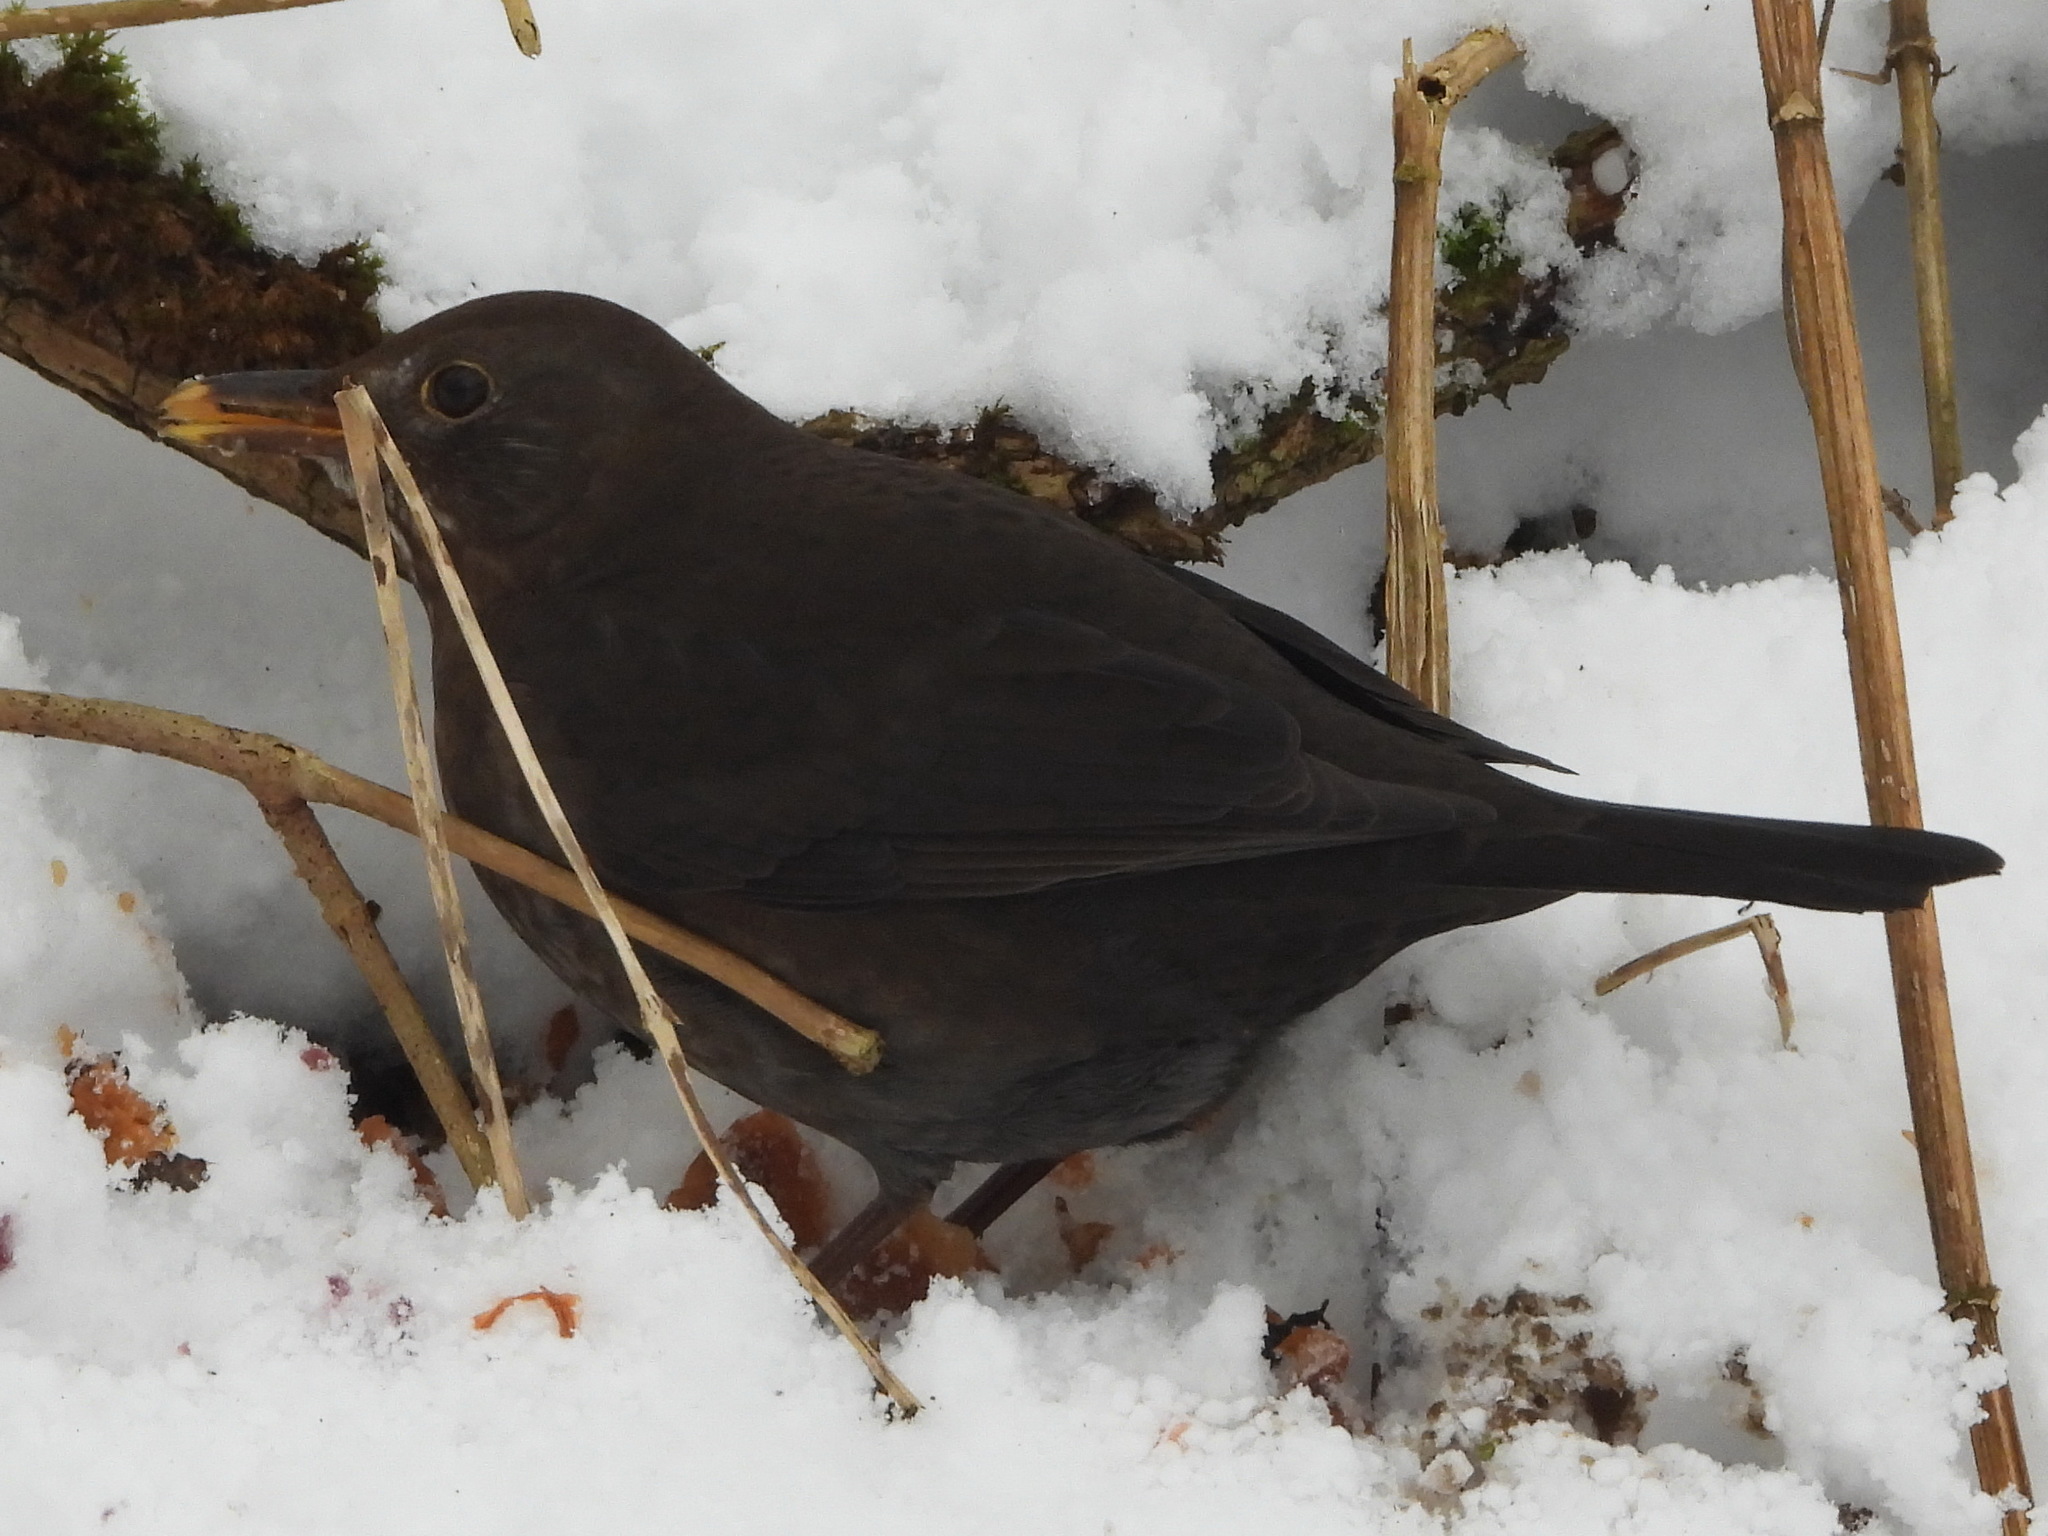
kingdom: Animalia
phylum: Chordata
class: Aves
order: Passeriformes
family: Turdidae
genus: Turdus
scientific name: Turdus merula
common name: Common blackbird
